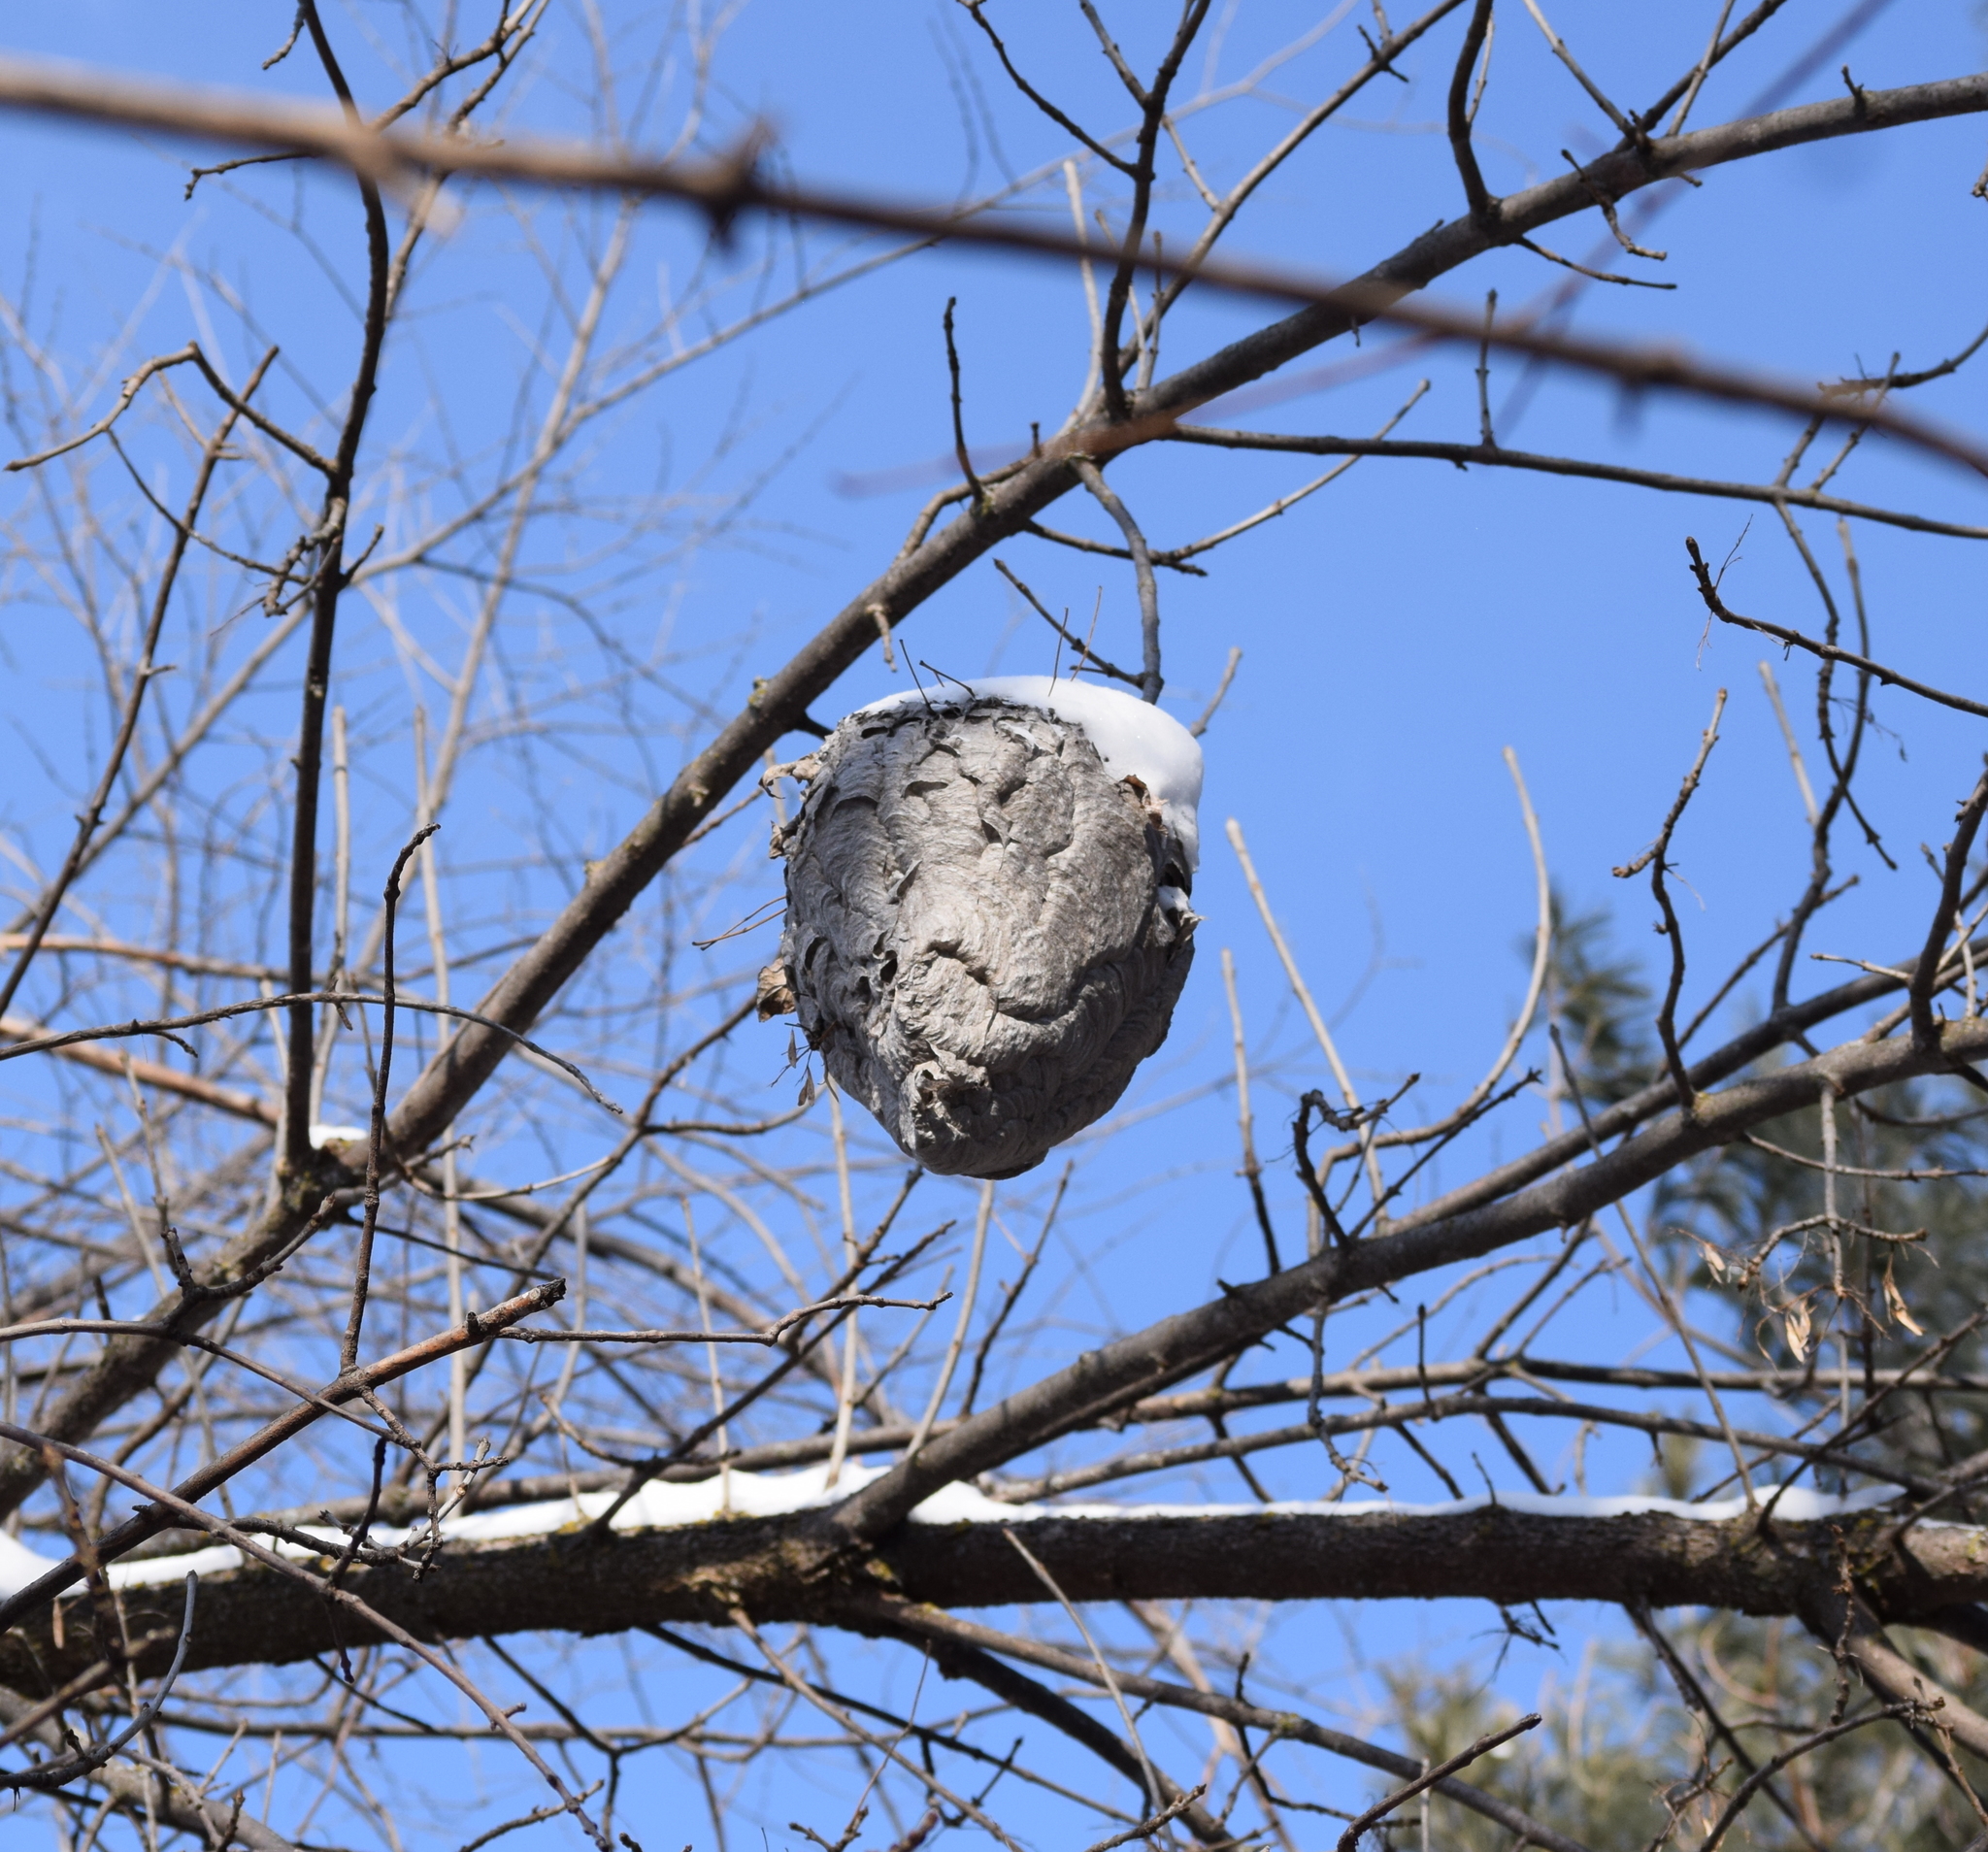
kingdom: Animalia
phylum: Arthropoda
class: Insecta
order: Hymenoptera
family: Vespidae
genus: Dolichovespula
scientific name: Dolichovespula maculata
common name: Bald-faced hornet
